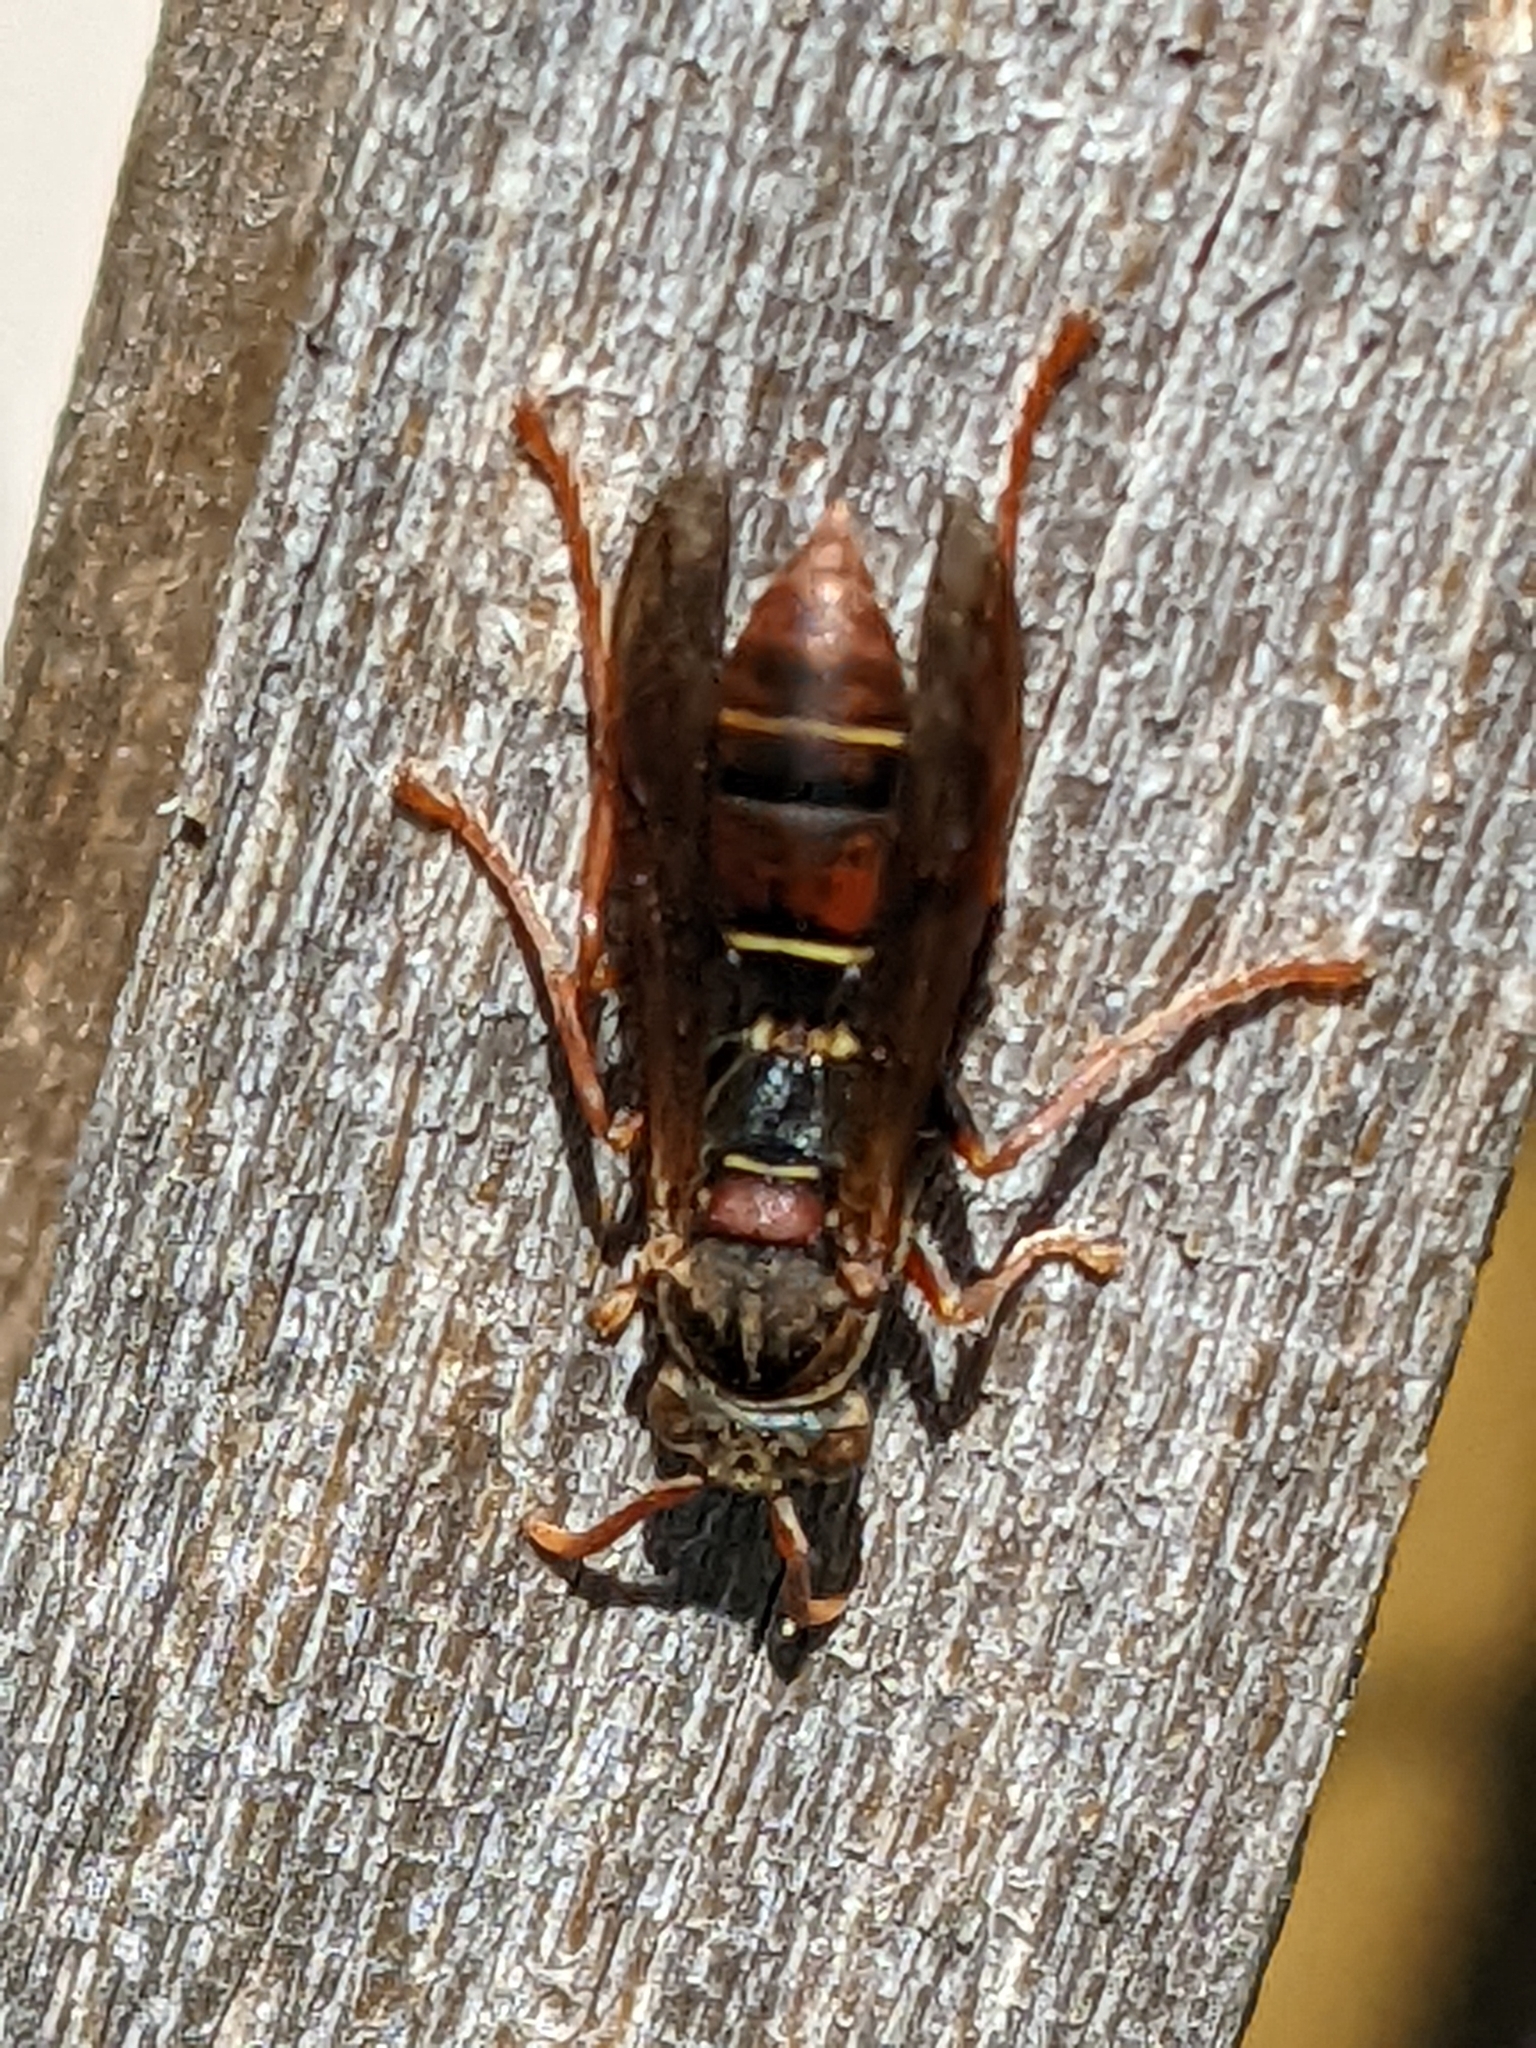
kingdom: Animalia
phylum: Arthropoda
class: Insecta
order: Hymenoptera
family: Eumenidae
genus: Polistes
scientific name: Polistes humilis
